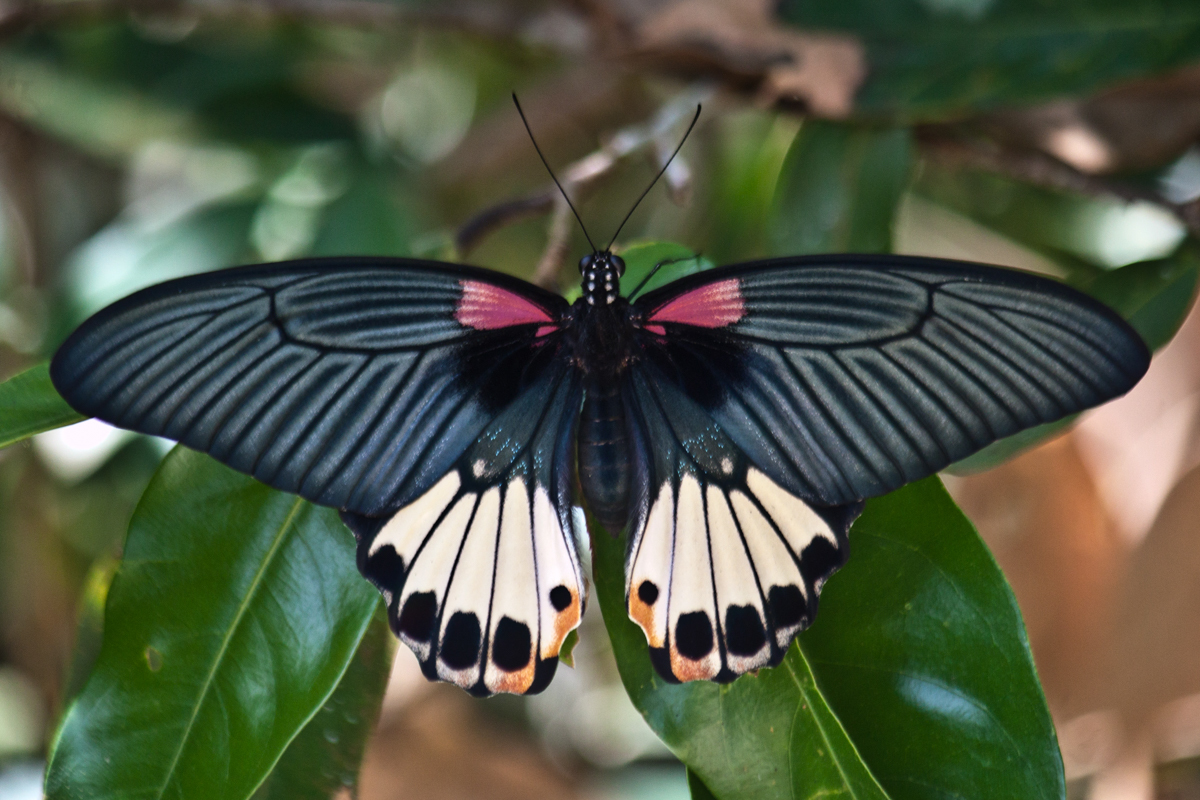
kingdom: Animalia
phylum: Arthropoda
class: Insecta
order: Lepidoptera
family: Papilionidae
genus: Papilio
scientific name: Papilio memnon
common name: Great mormon
